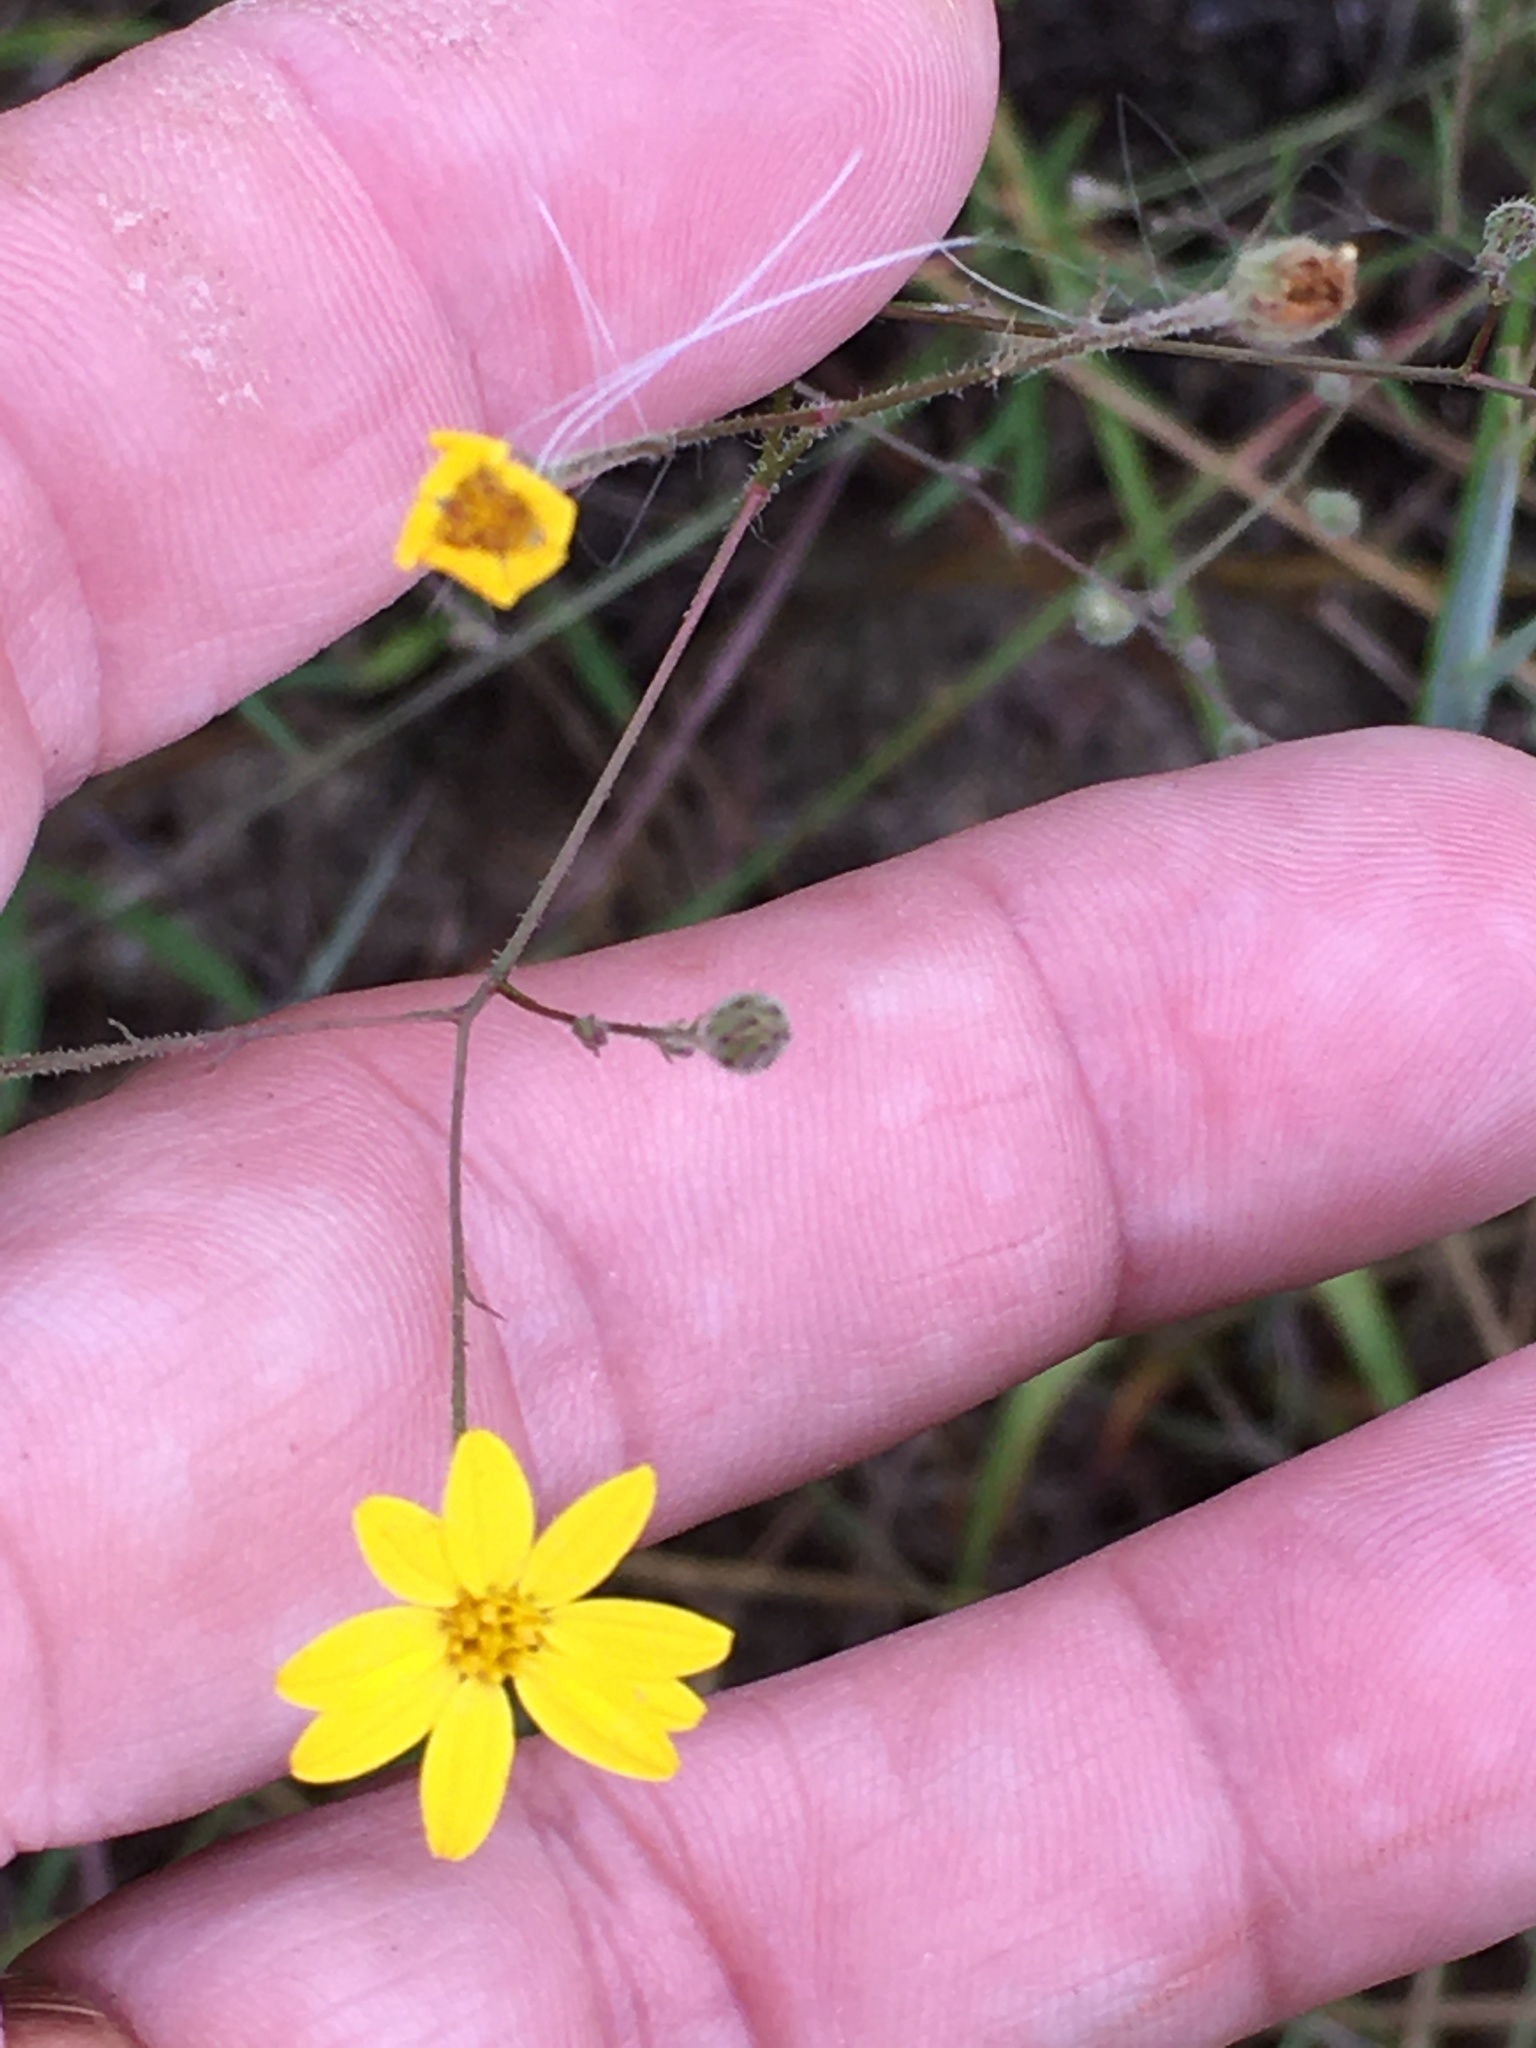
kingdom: Plantae
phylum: Tracheophyta
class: Magnoliopsida
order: Asterales
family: Asteraceae
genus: Croptilon
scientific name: Croptilon divaricatum
